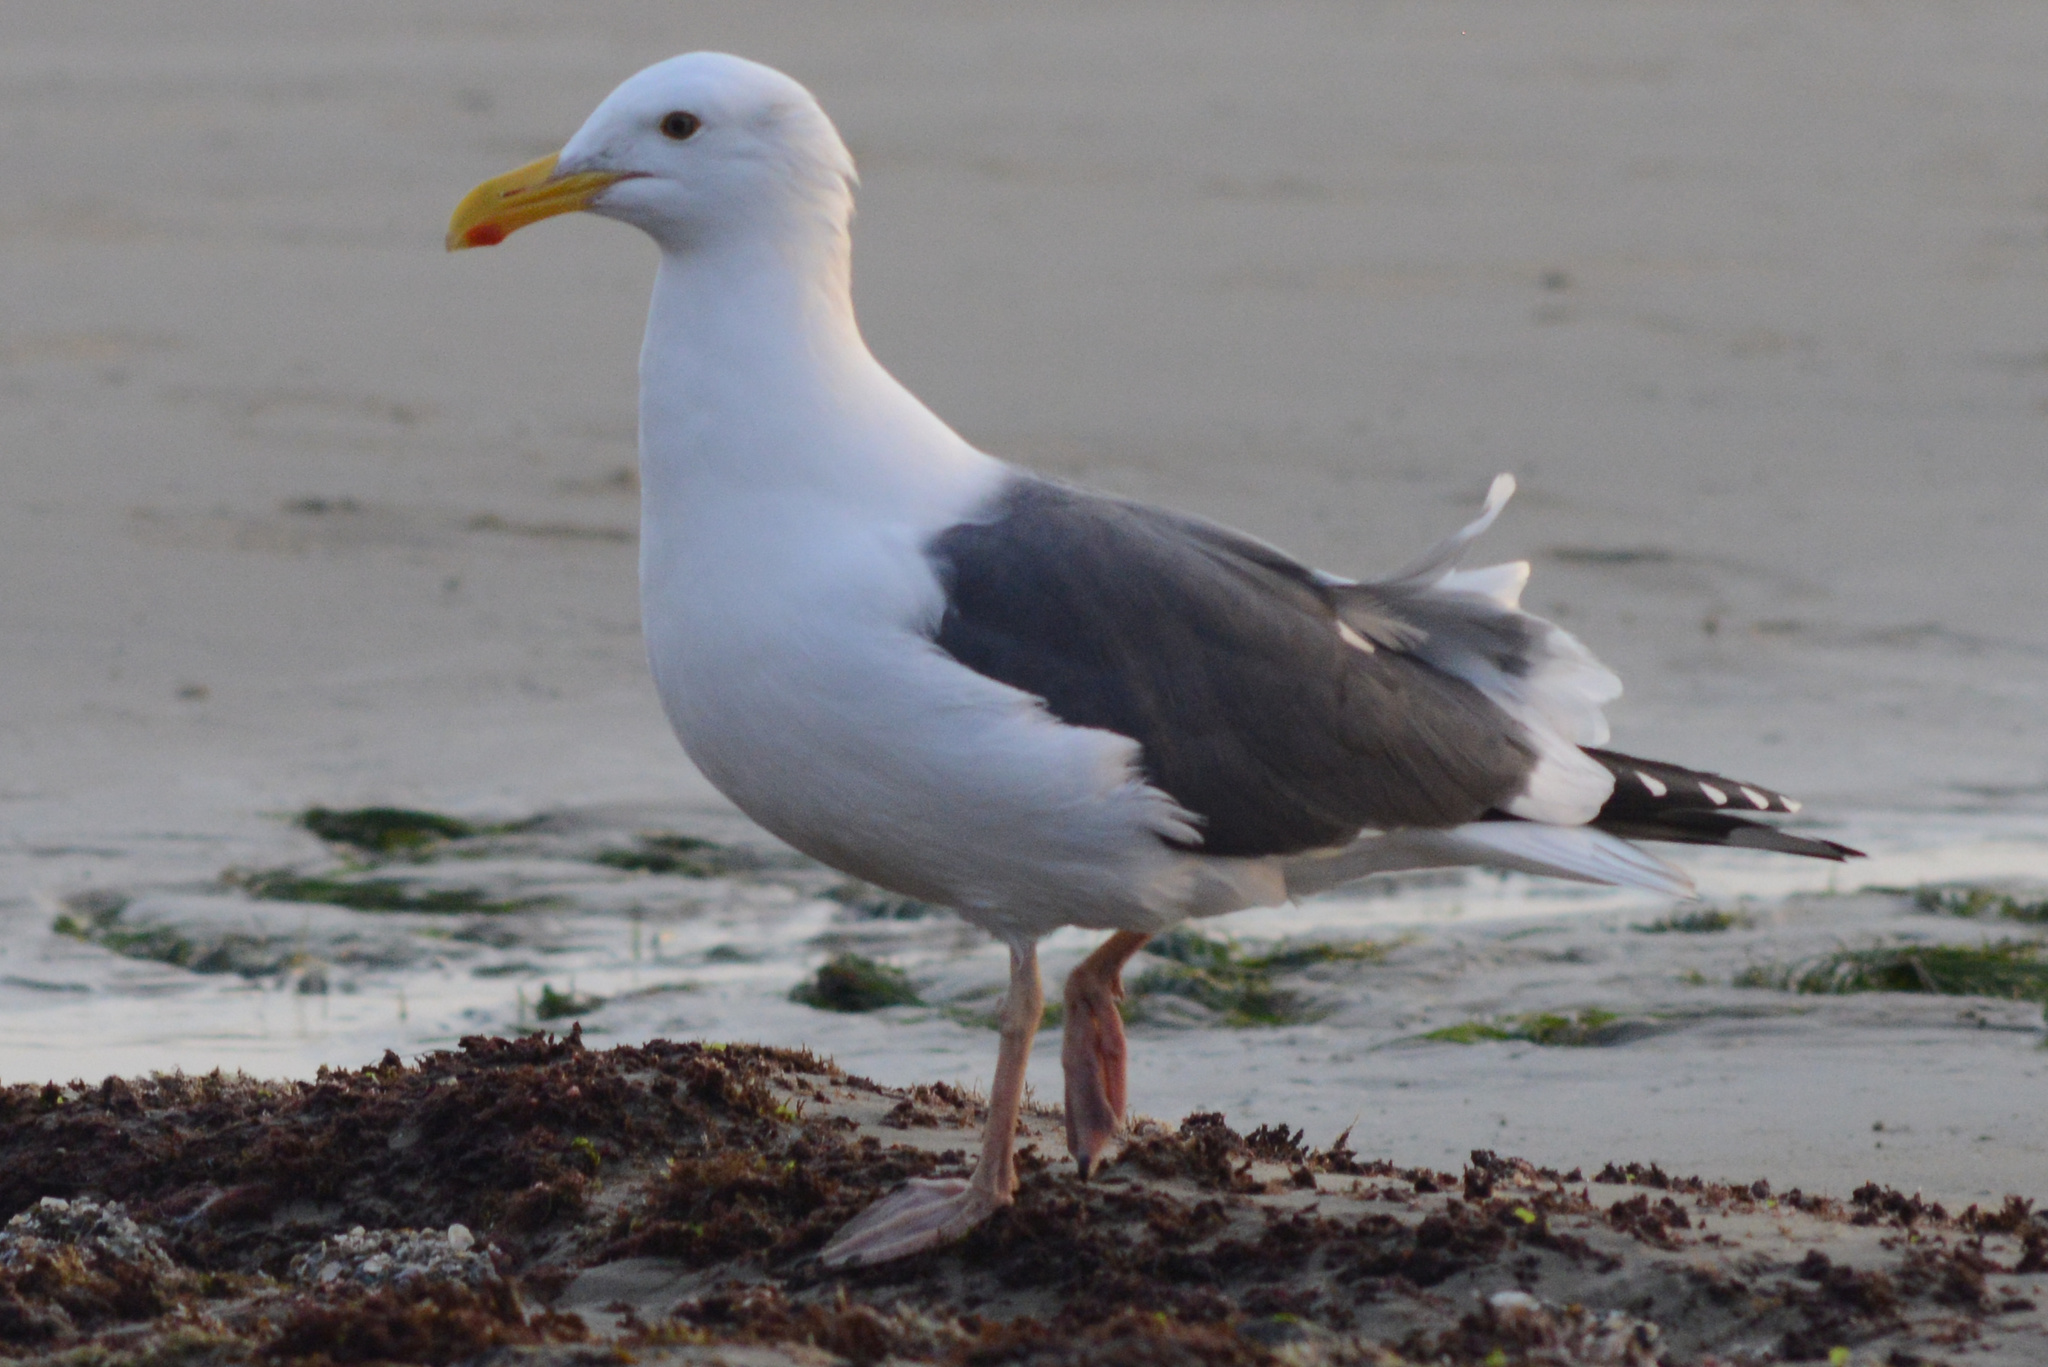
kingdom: Animalia
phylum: Chordata
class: Aves
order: Charadriiformes
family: Laridae
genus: Larus
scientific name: Larus occidentalis
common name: Western gull
